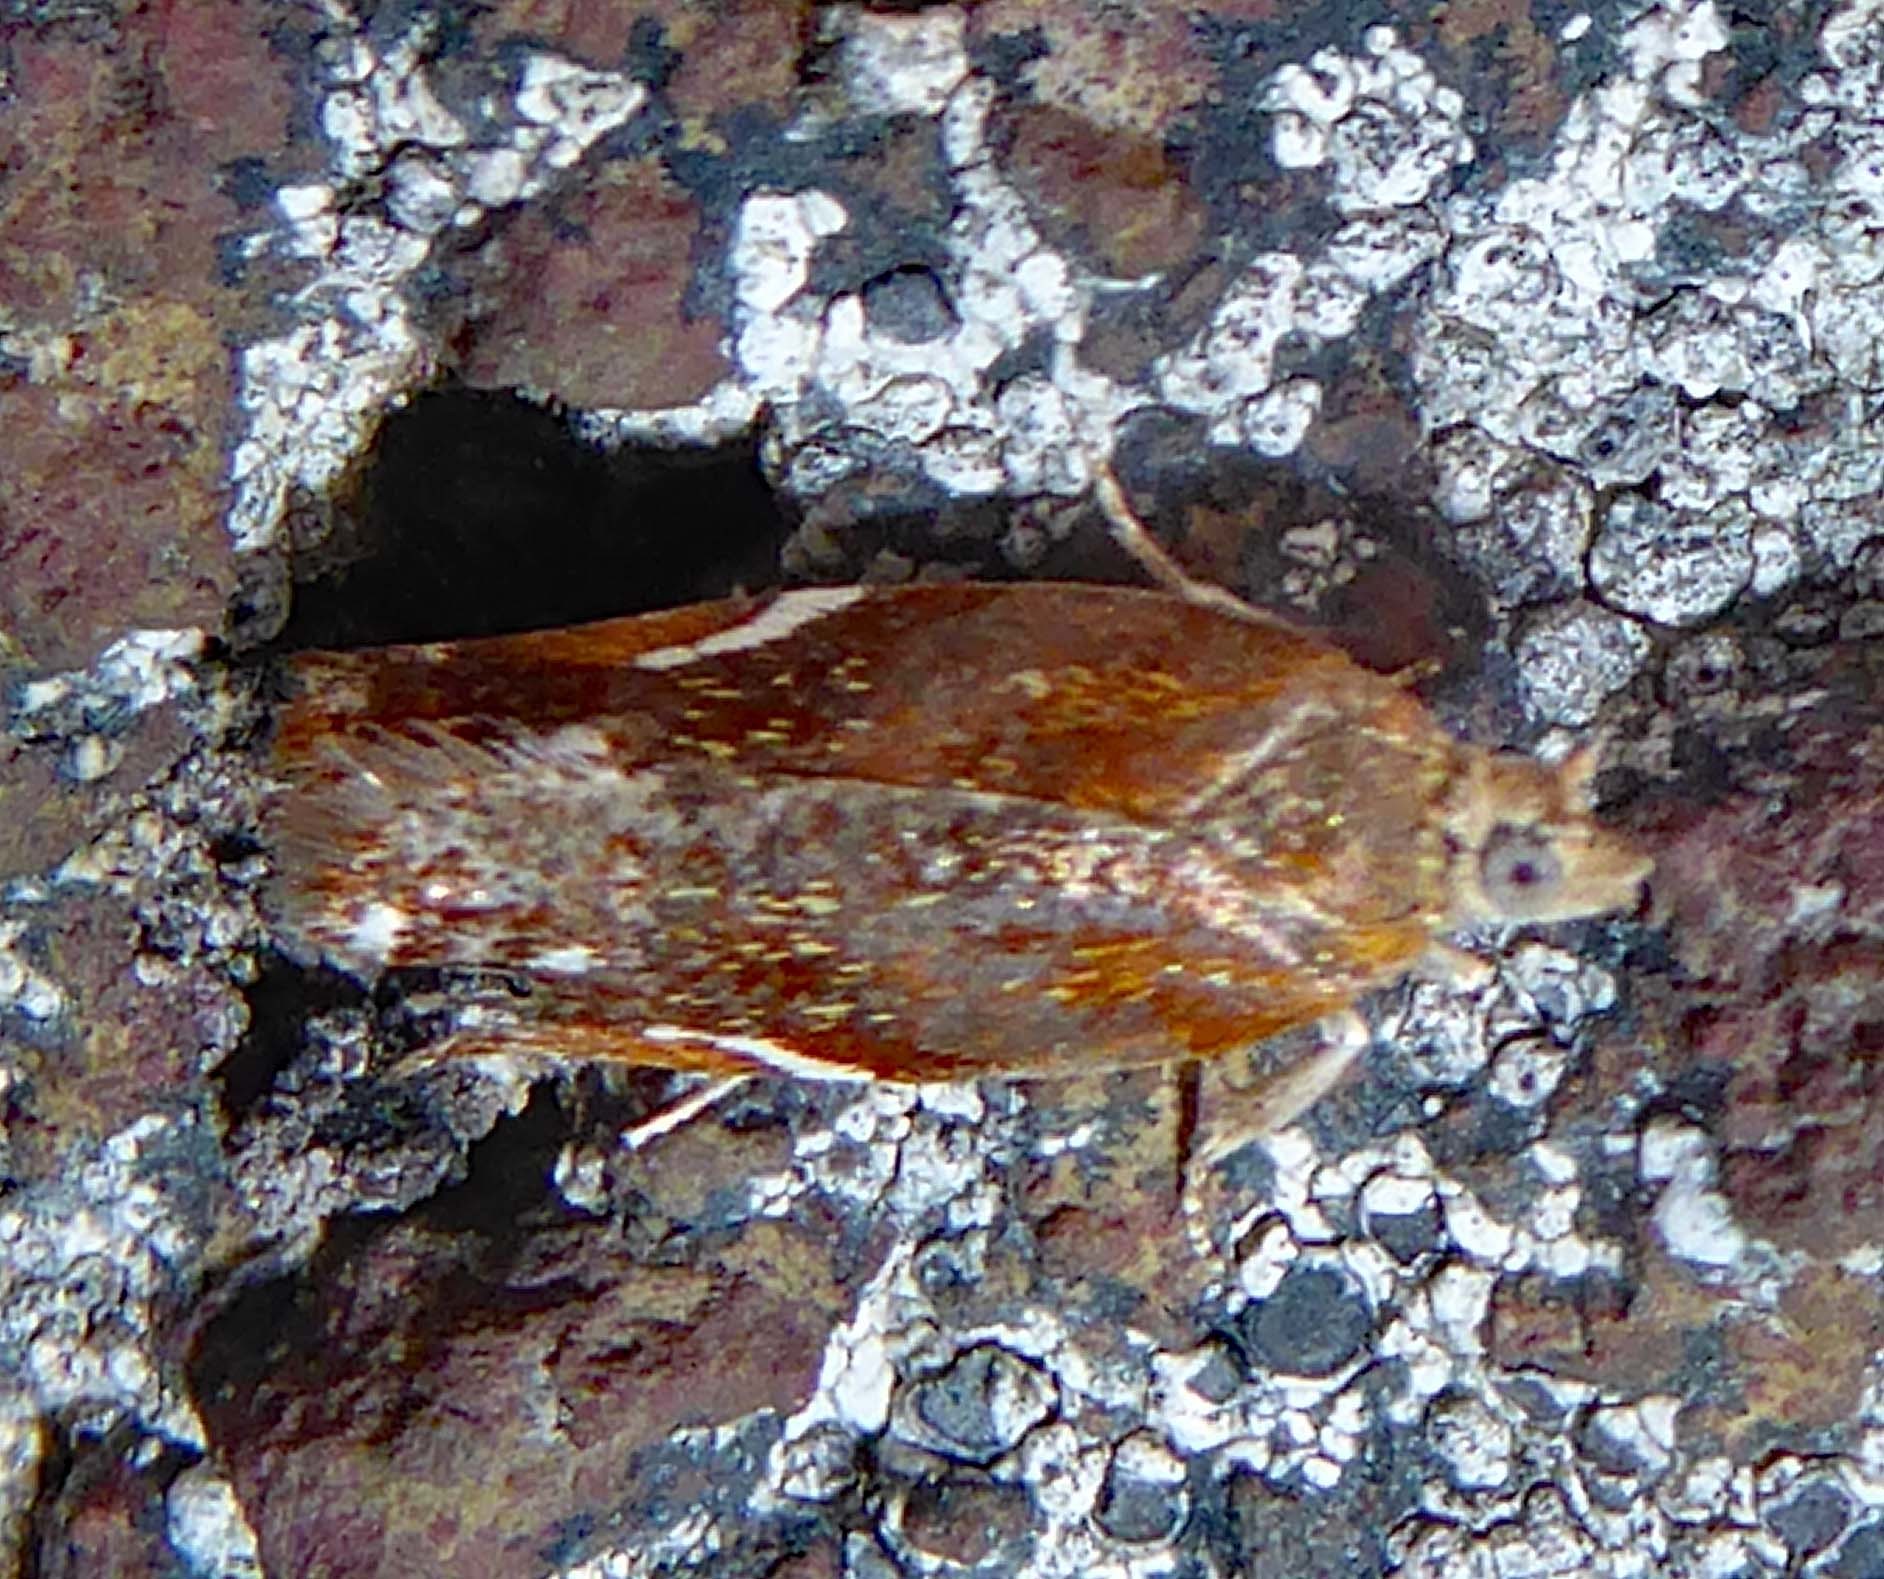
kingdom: Animalia
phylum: Arthropoda
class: Insecta
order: Lepidoptera
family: Tortricidae
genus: Epichorista
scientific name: Epichorista emphanes
